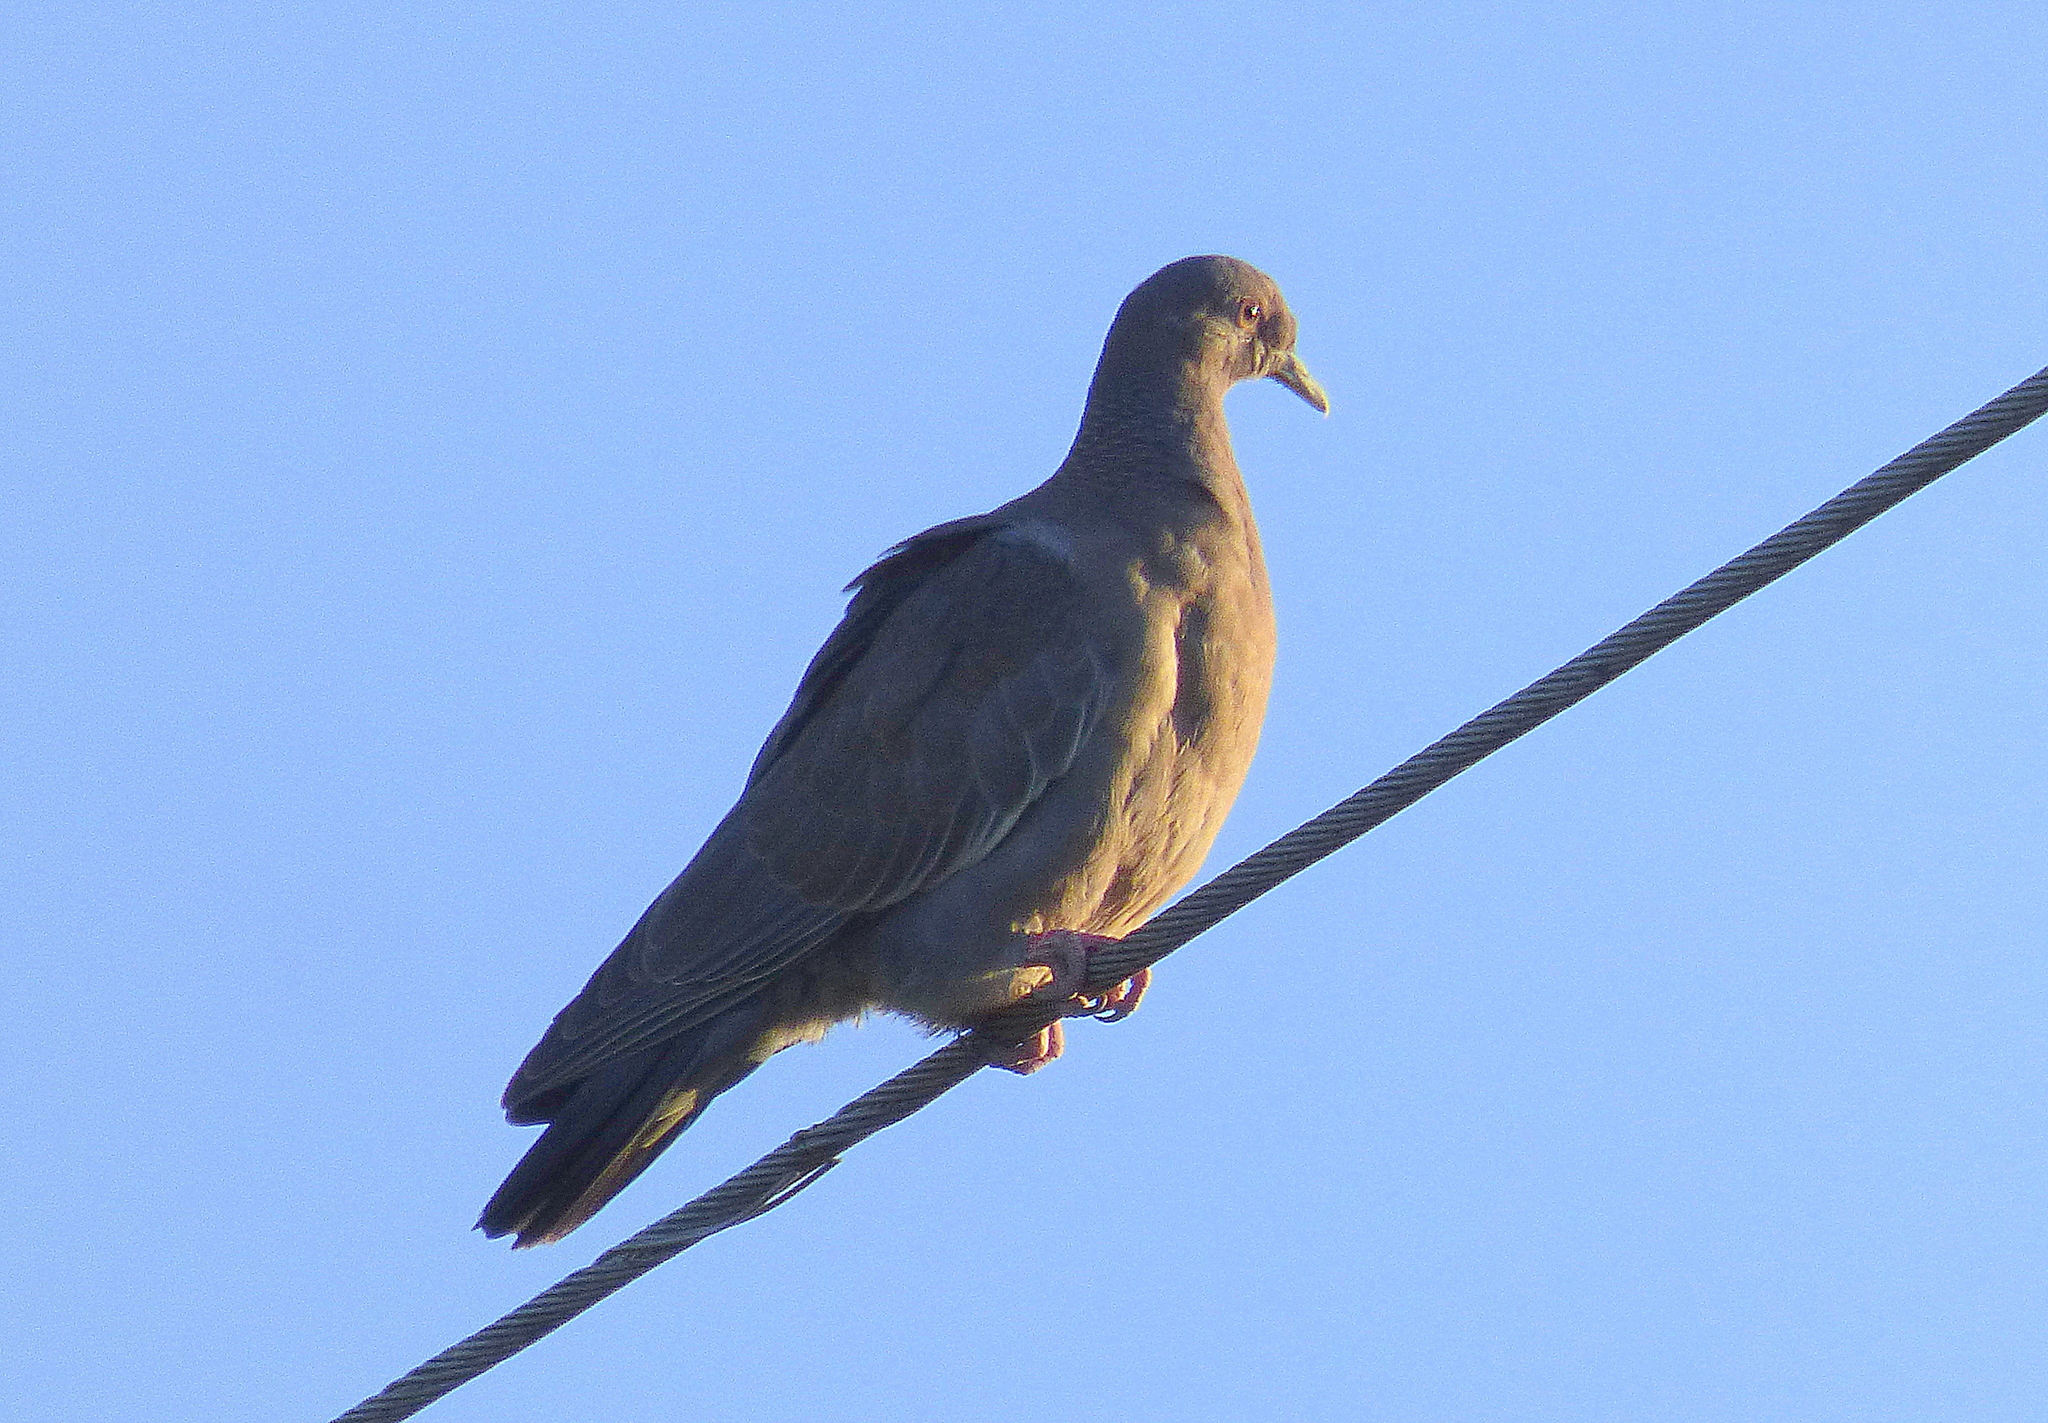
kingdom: Animalia
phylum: Chordata
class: Aves
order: Columbiformes
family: Columbidae
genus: Patagioenas
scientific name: Patagioenas picazuro
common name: Picazuro pigeon
